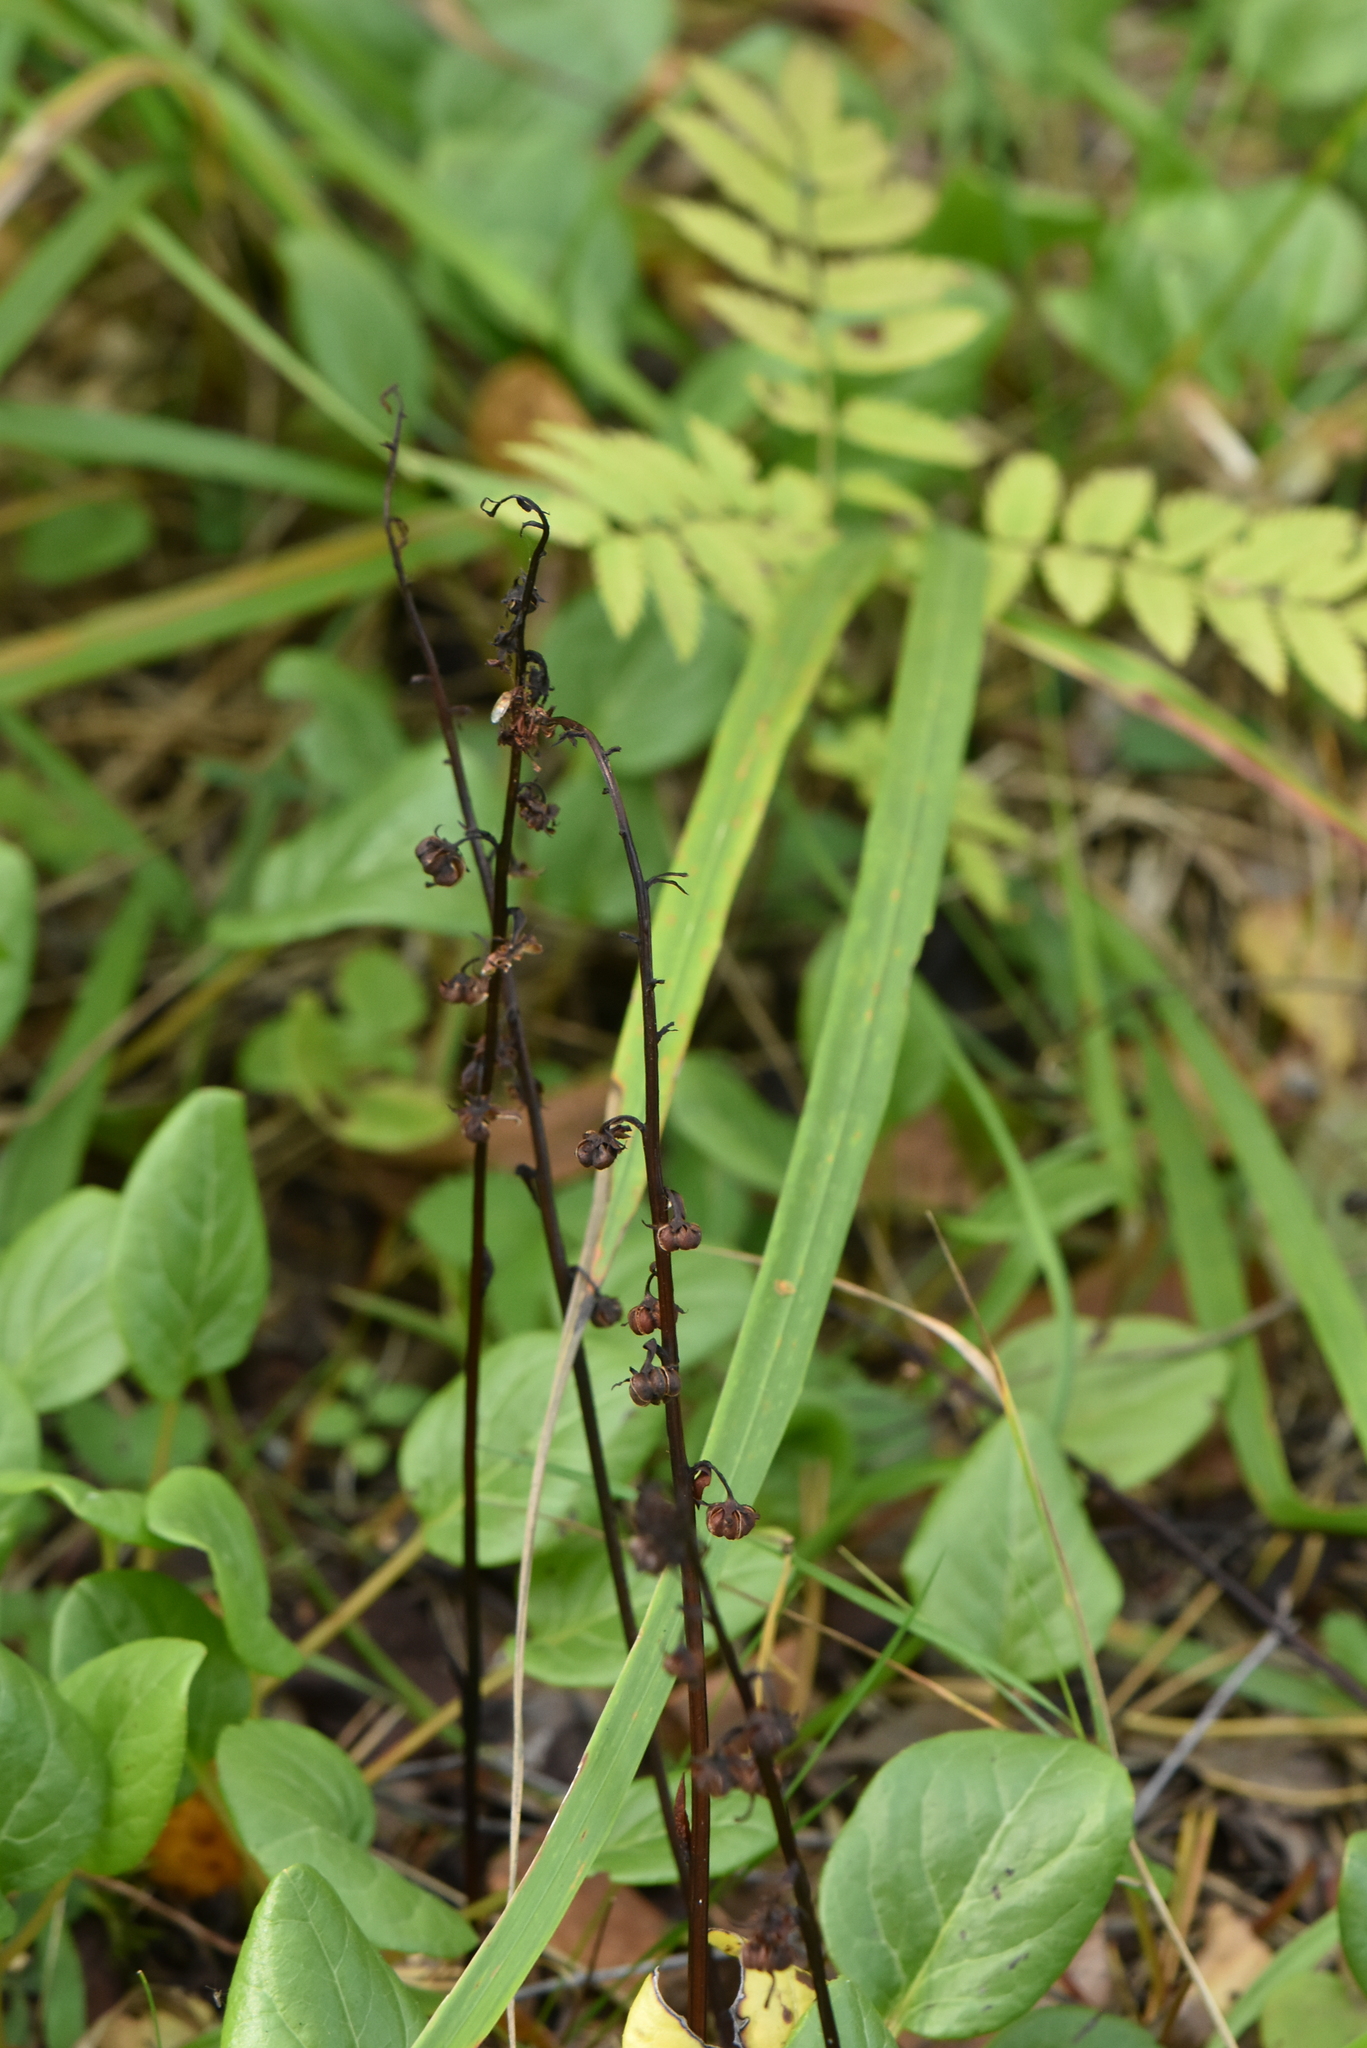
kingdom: Plantae
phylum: Tracheophyta
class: Magnoliopsida
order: Ericales
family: Ericaceae
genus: Pyrola
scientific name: Pyrola rotundifolia
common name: Round-leaved wintergreen
